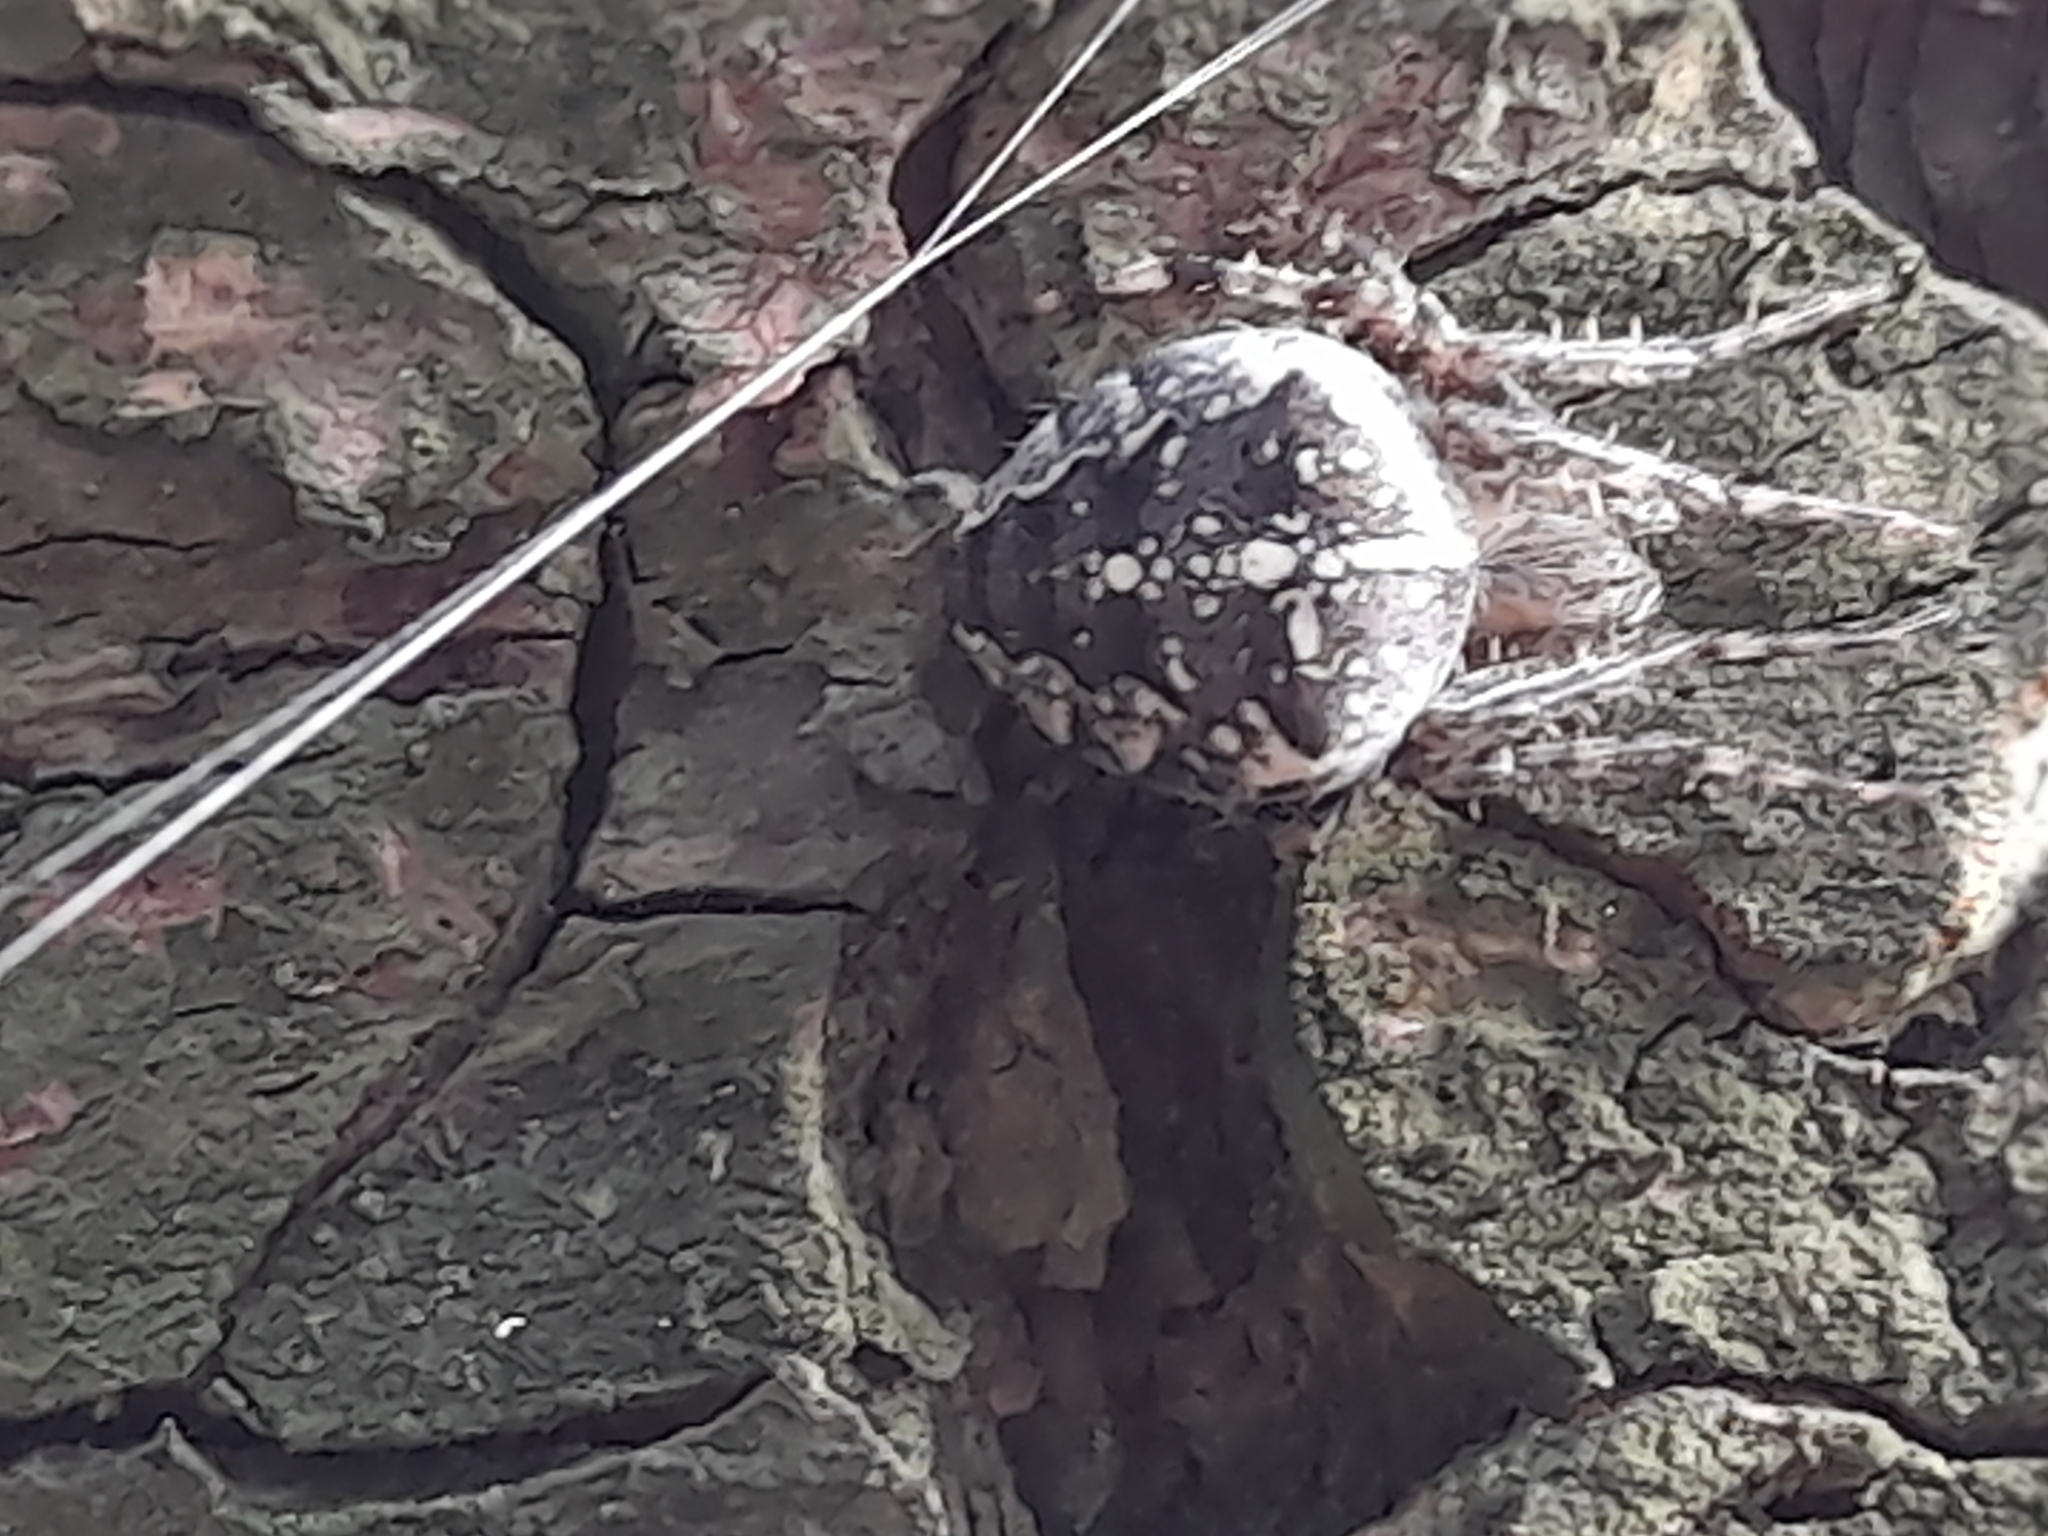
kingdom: Animalia
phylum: Arthropoda
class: Arachnida
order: Araneae
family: Araneidae
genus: Araneus
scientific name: Araneus diadematus
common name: Cross orbweaver
